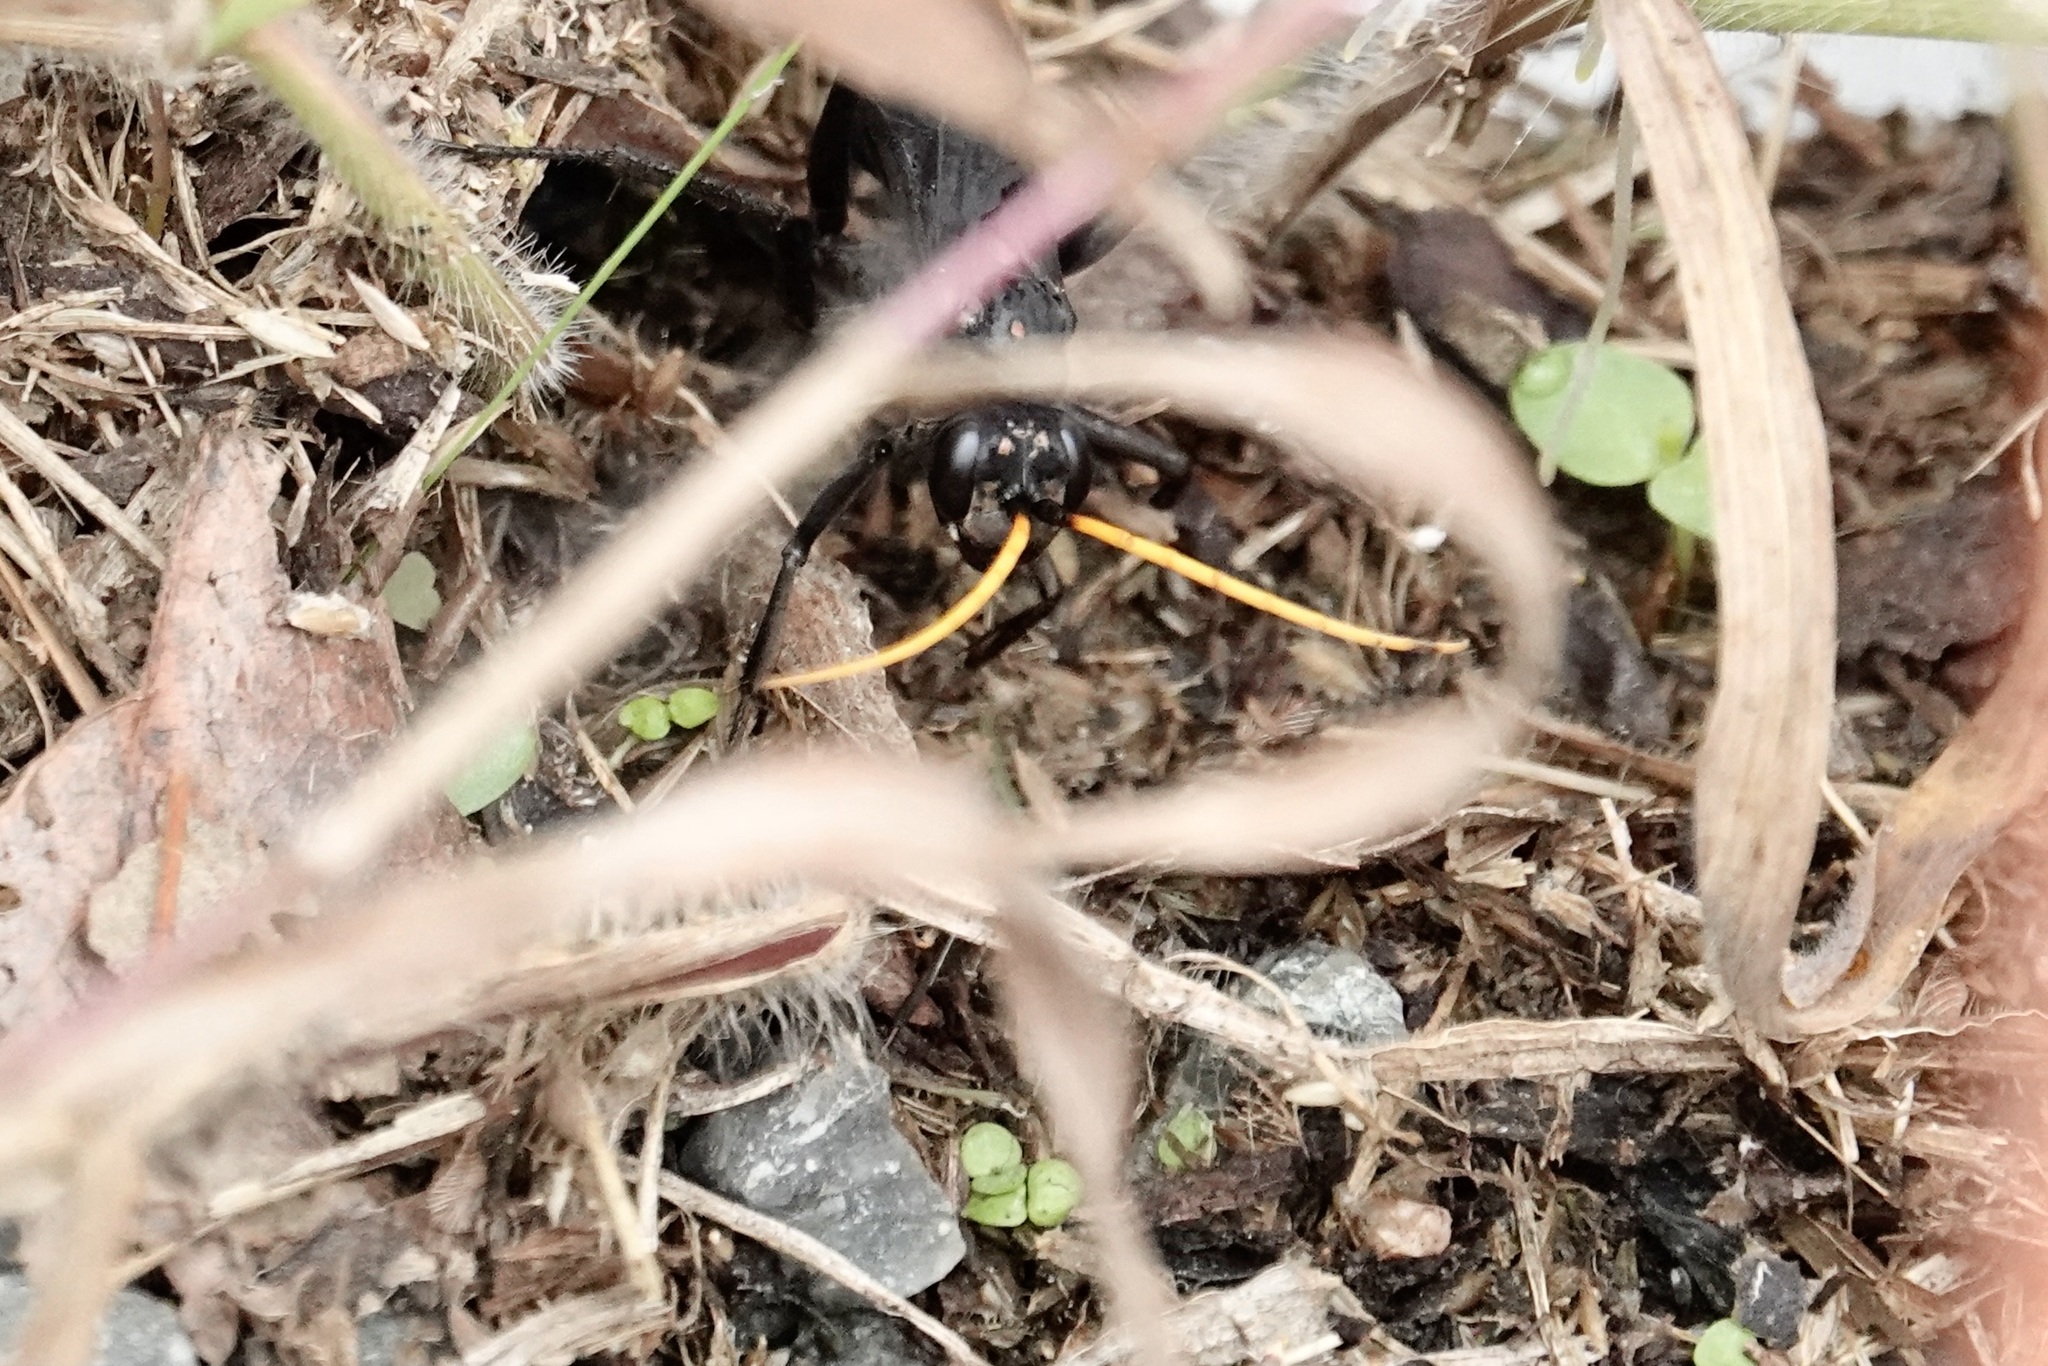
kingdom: Animalia
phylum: Arthropoda
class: Insecta
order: Hymenoptera
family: Pompilidae
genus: Entypus
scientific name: Entypus unifasciatus
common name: Eastern tawny-horned spider wasp
